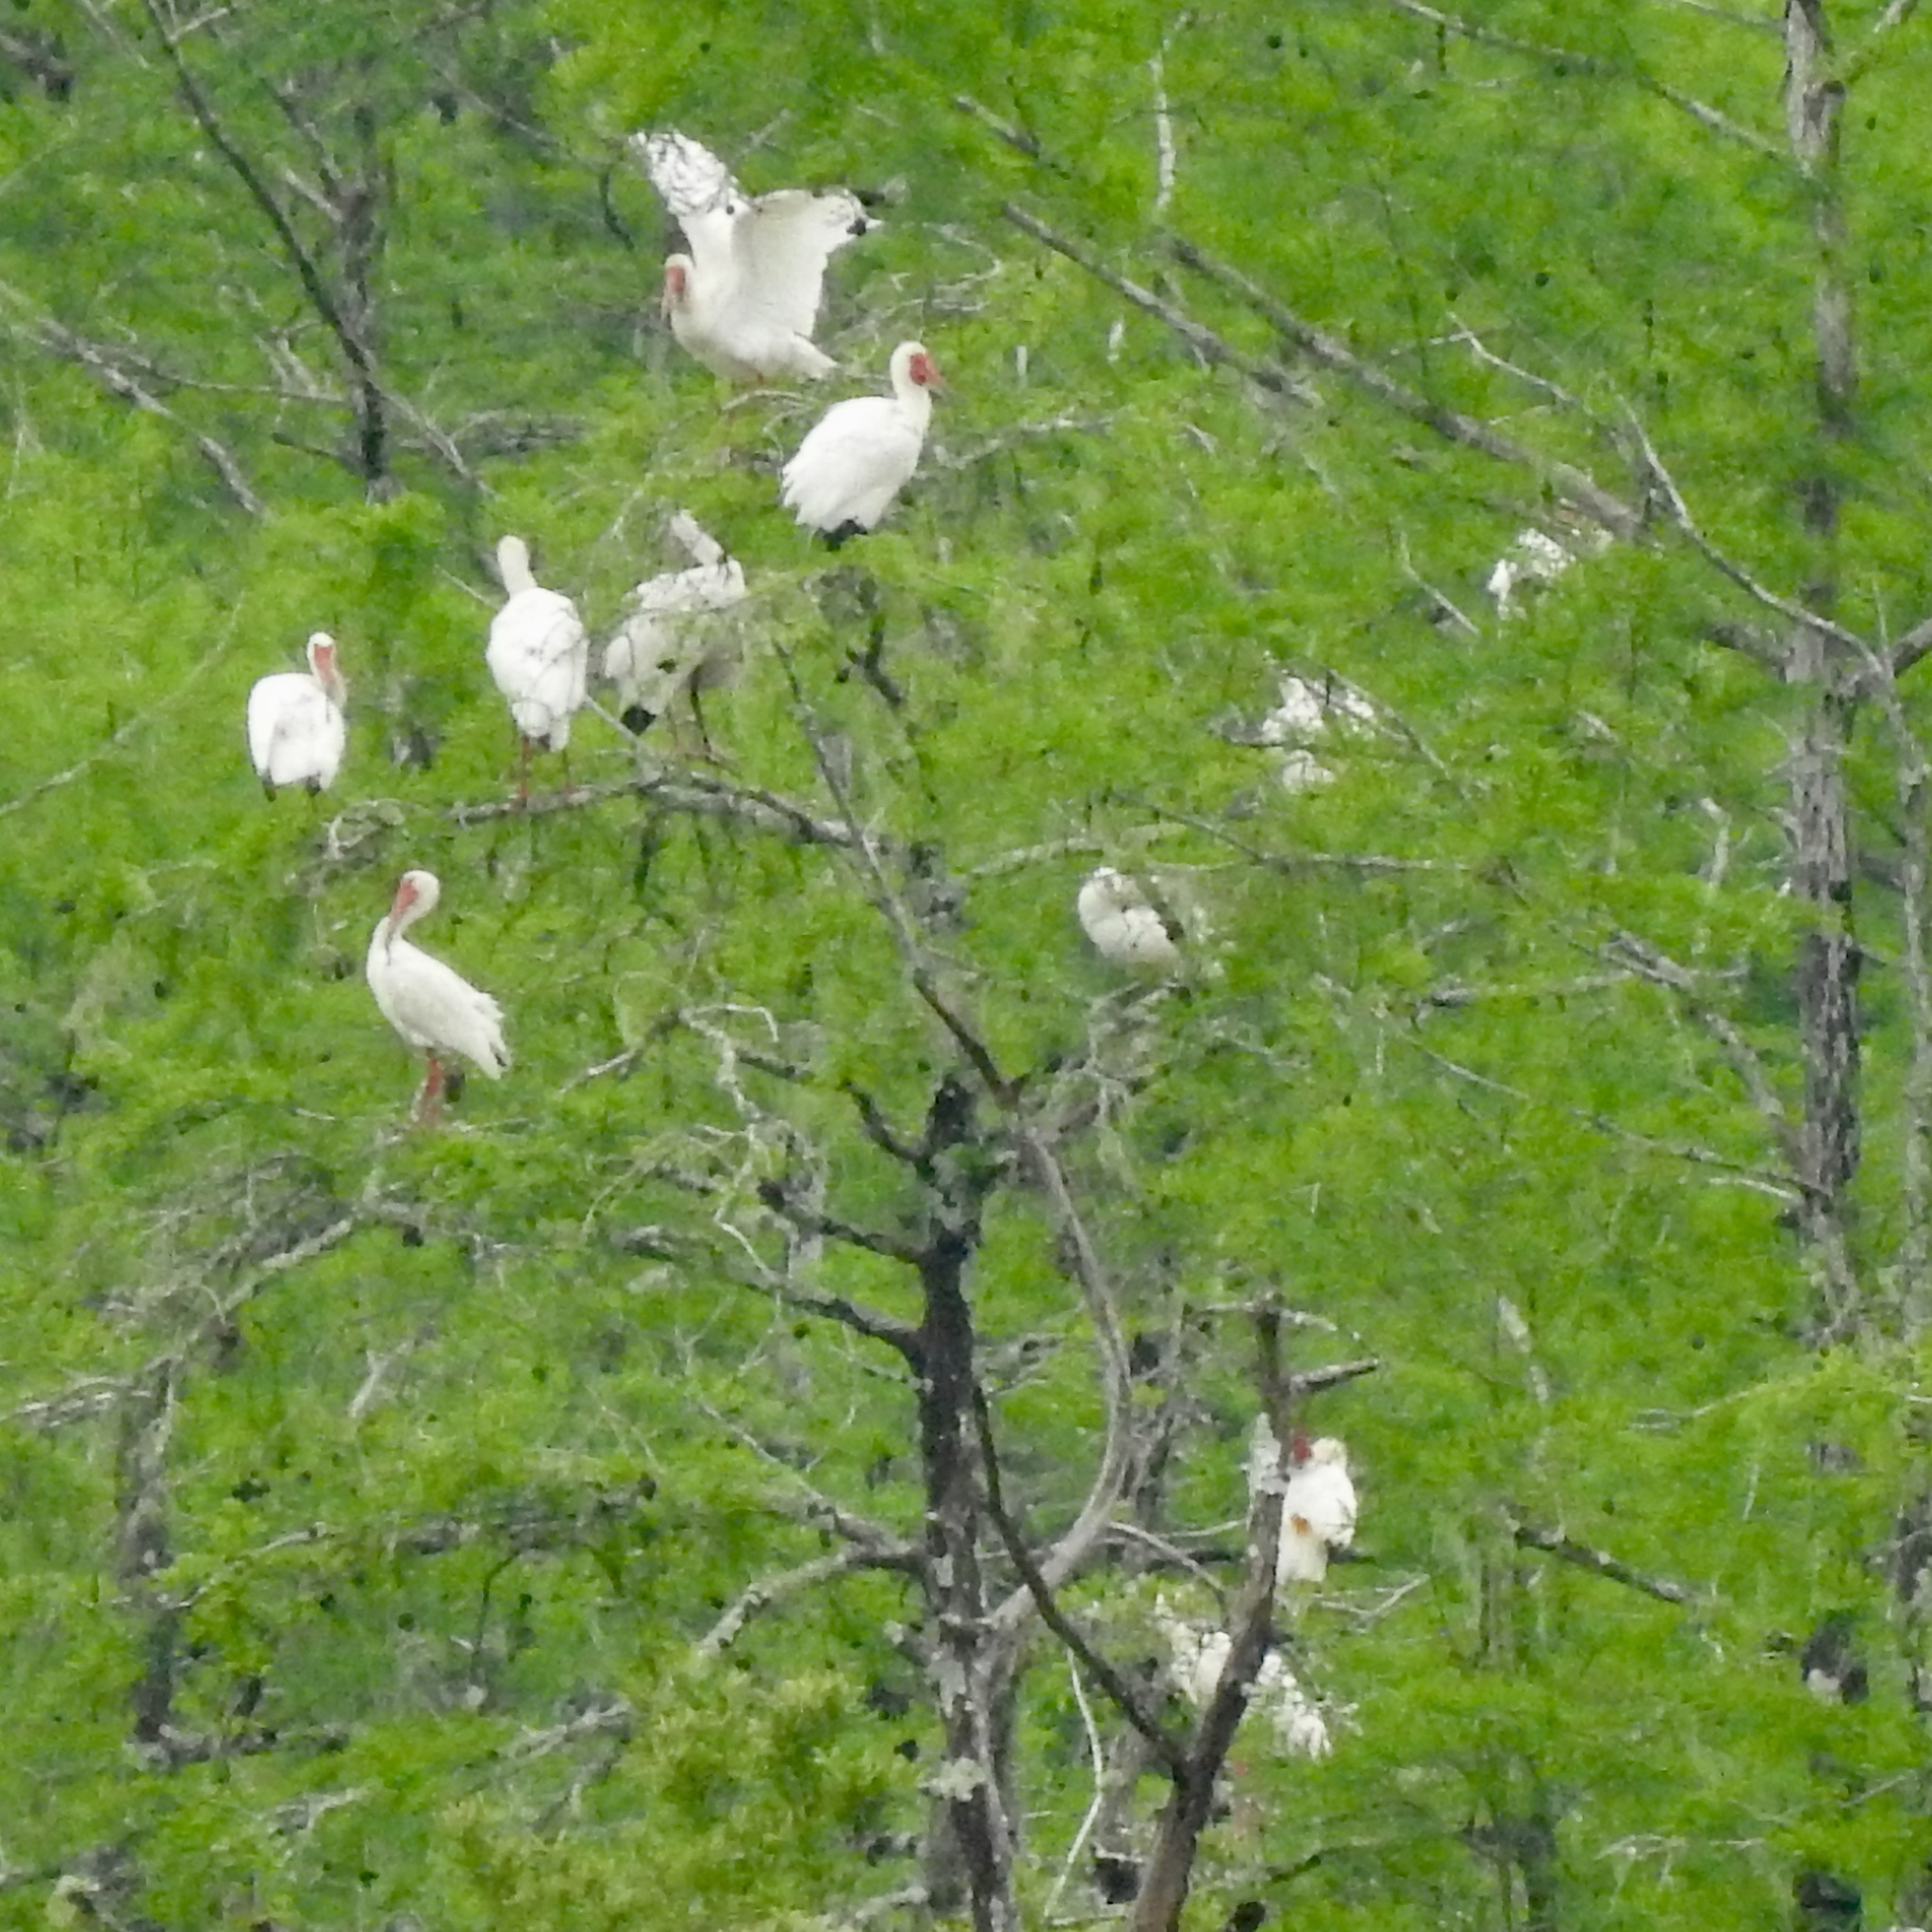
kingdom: Animalia
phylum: Chordata
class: Aves
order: Pelecaniformes
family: Threskiornithidae
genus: Eudocimus
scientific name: Eudocimus albus
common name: White ibis
